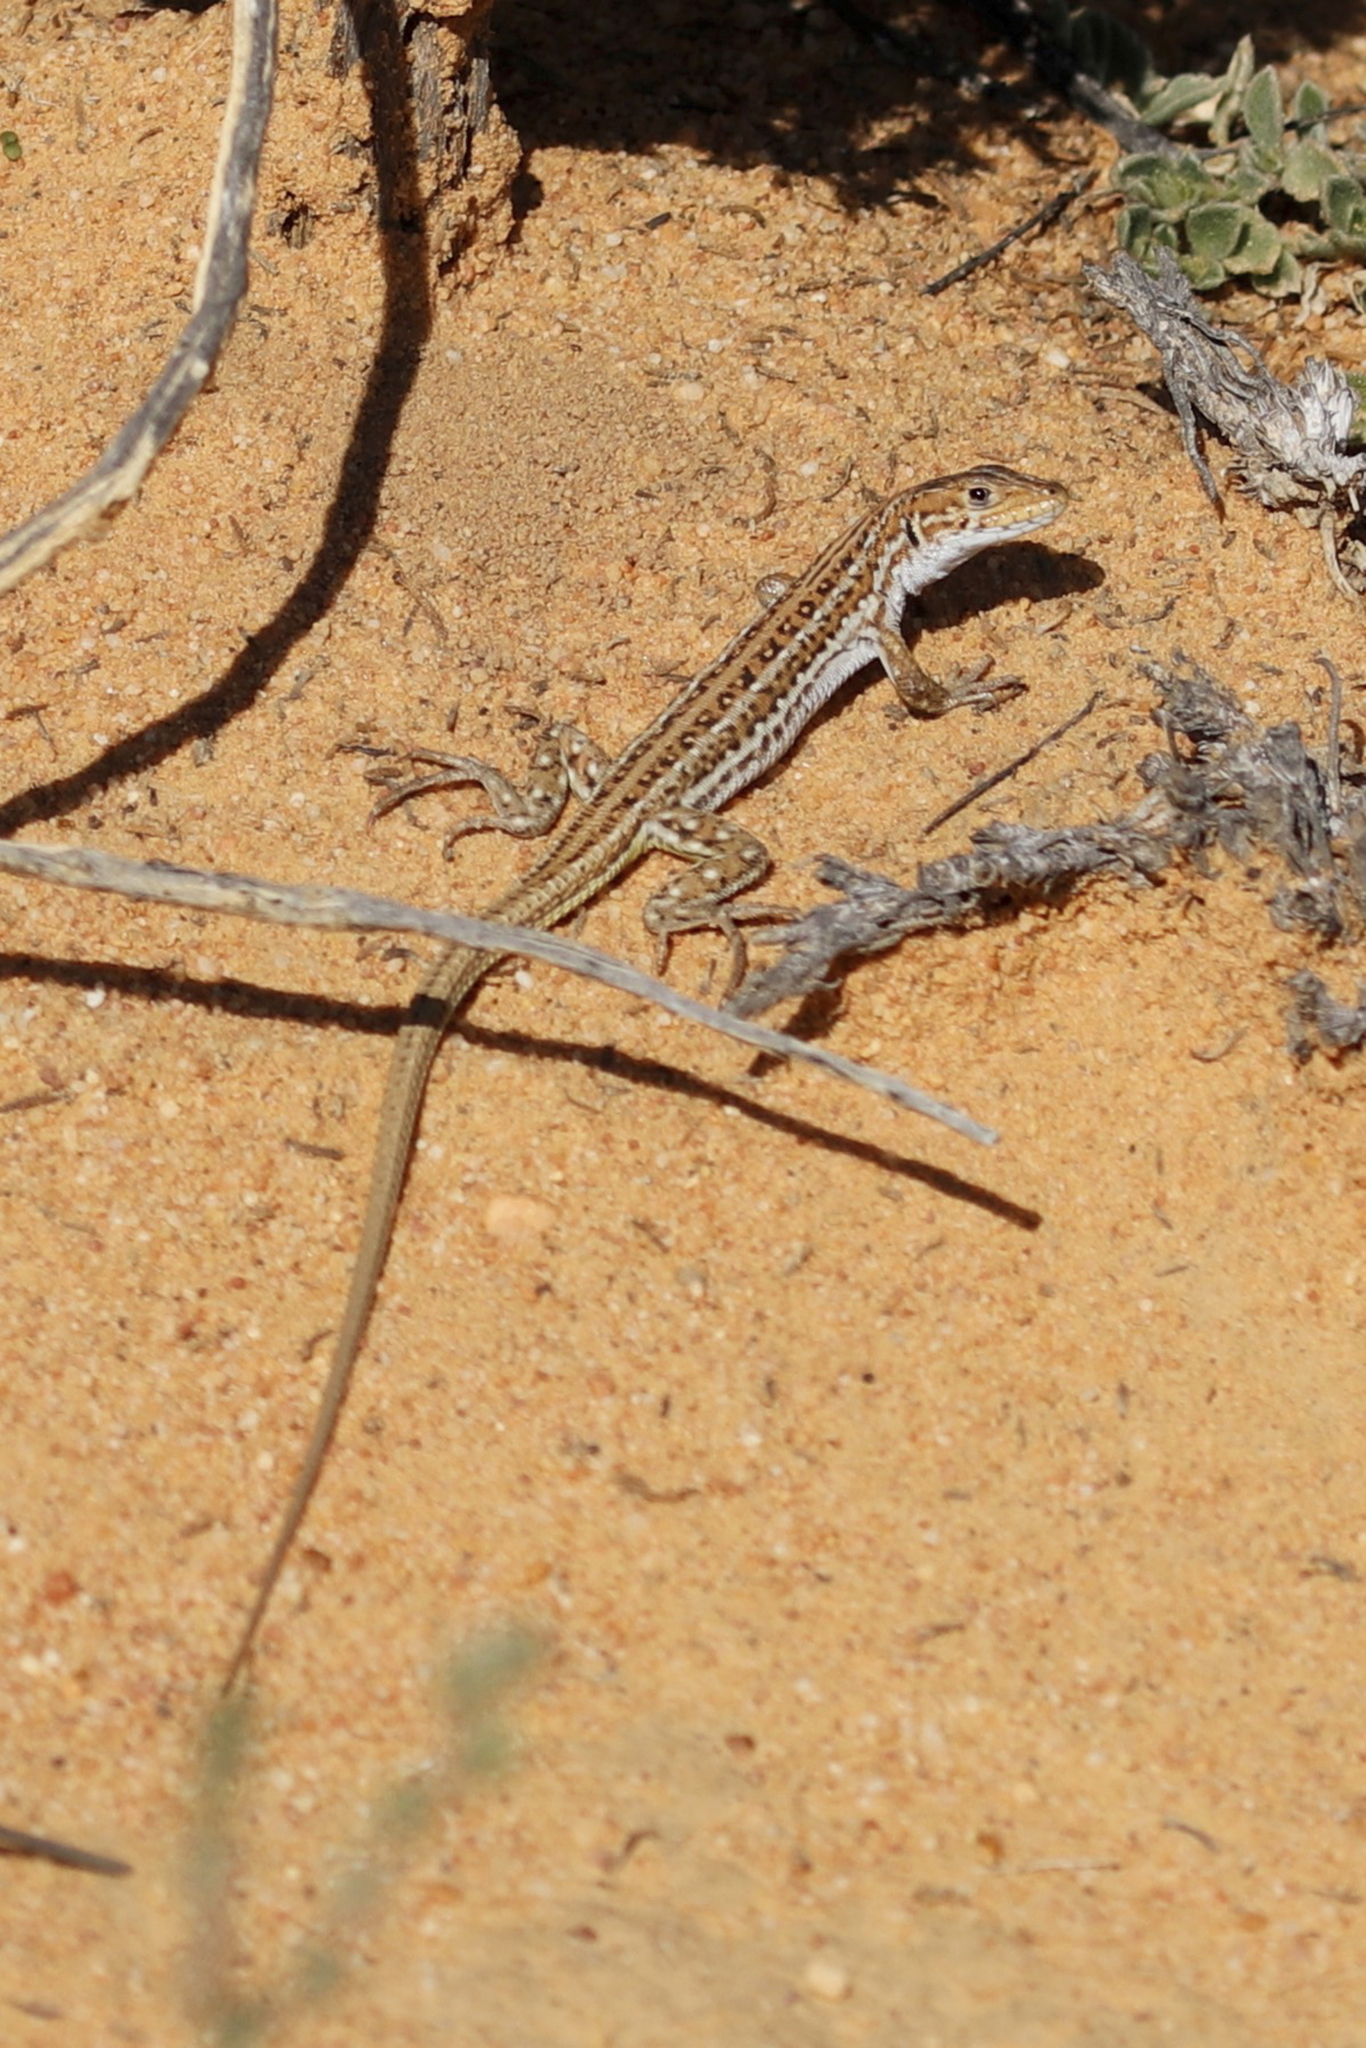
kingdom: Animalia
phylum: Chordata
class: Squamata
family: Lacertidae
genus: Meroles
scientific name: Meroles knoxii
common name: Knox's desert lizard
